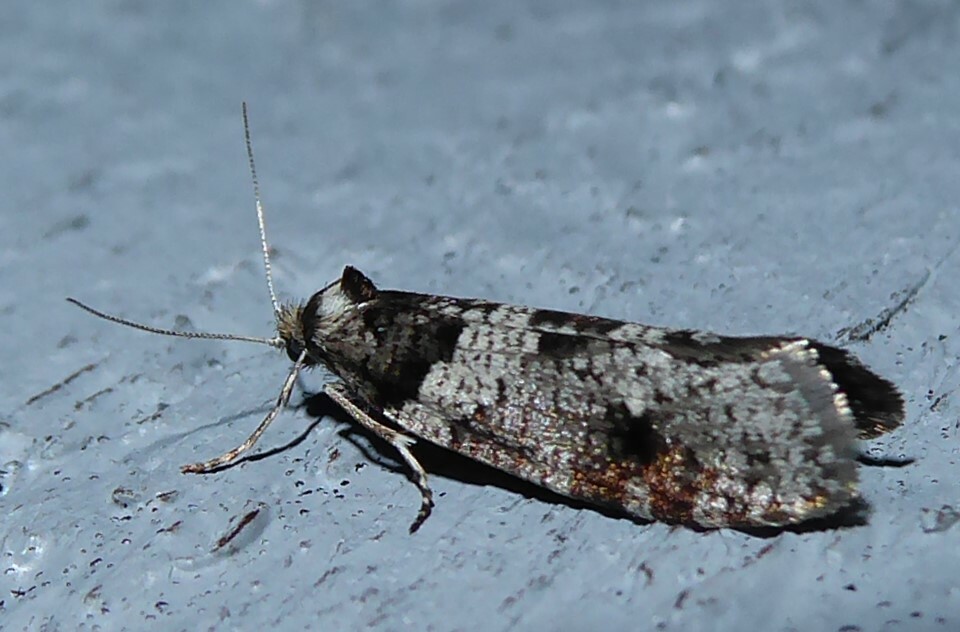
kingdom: Animalia
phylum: Arthropoda
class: Insecta
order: Lepidoptera
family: Psychidae
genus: Lepidoscia
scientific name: Lepidoscia heliochares
